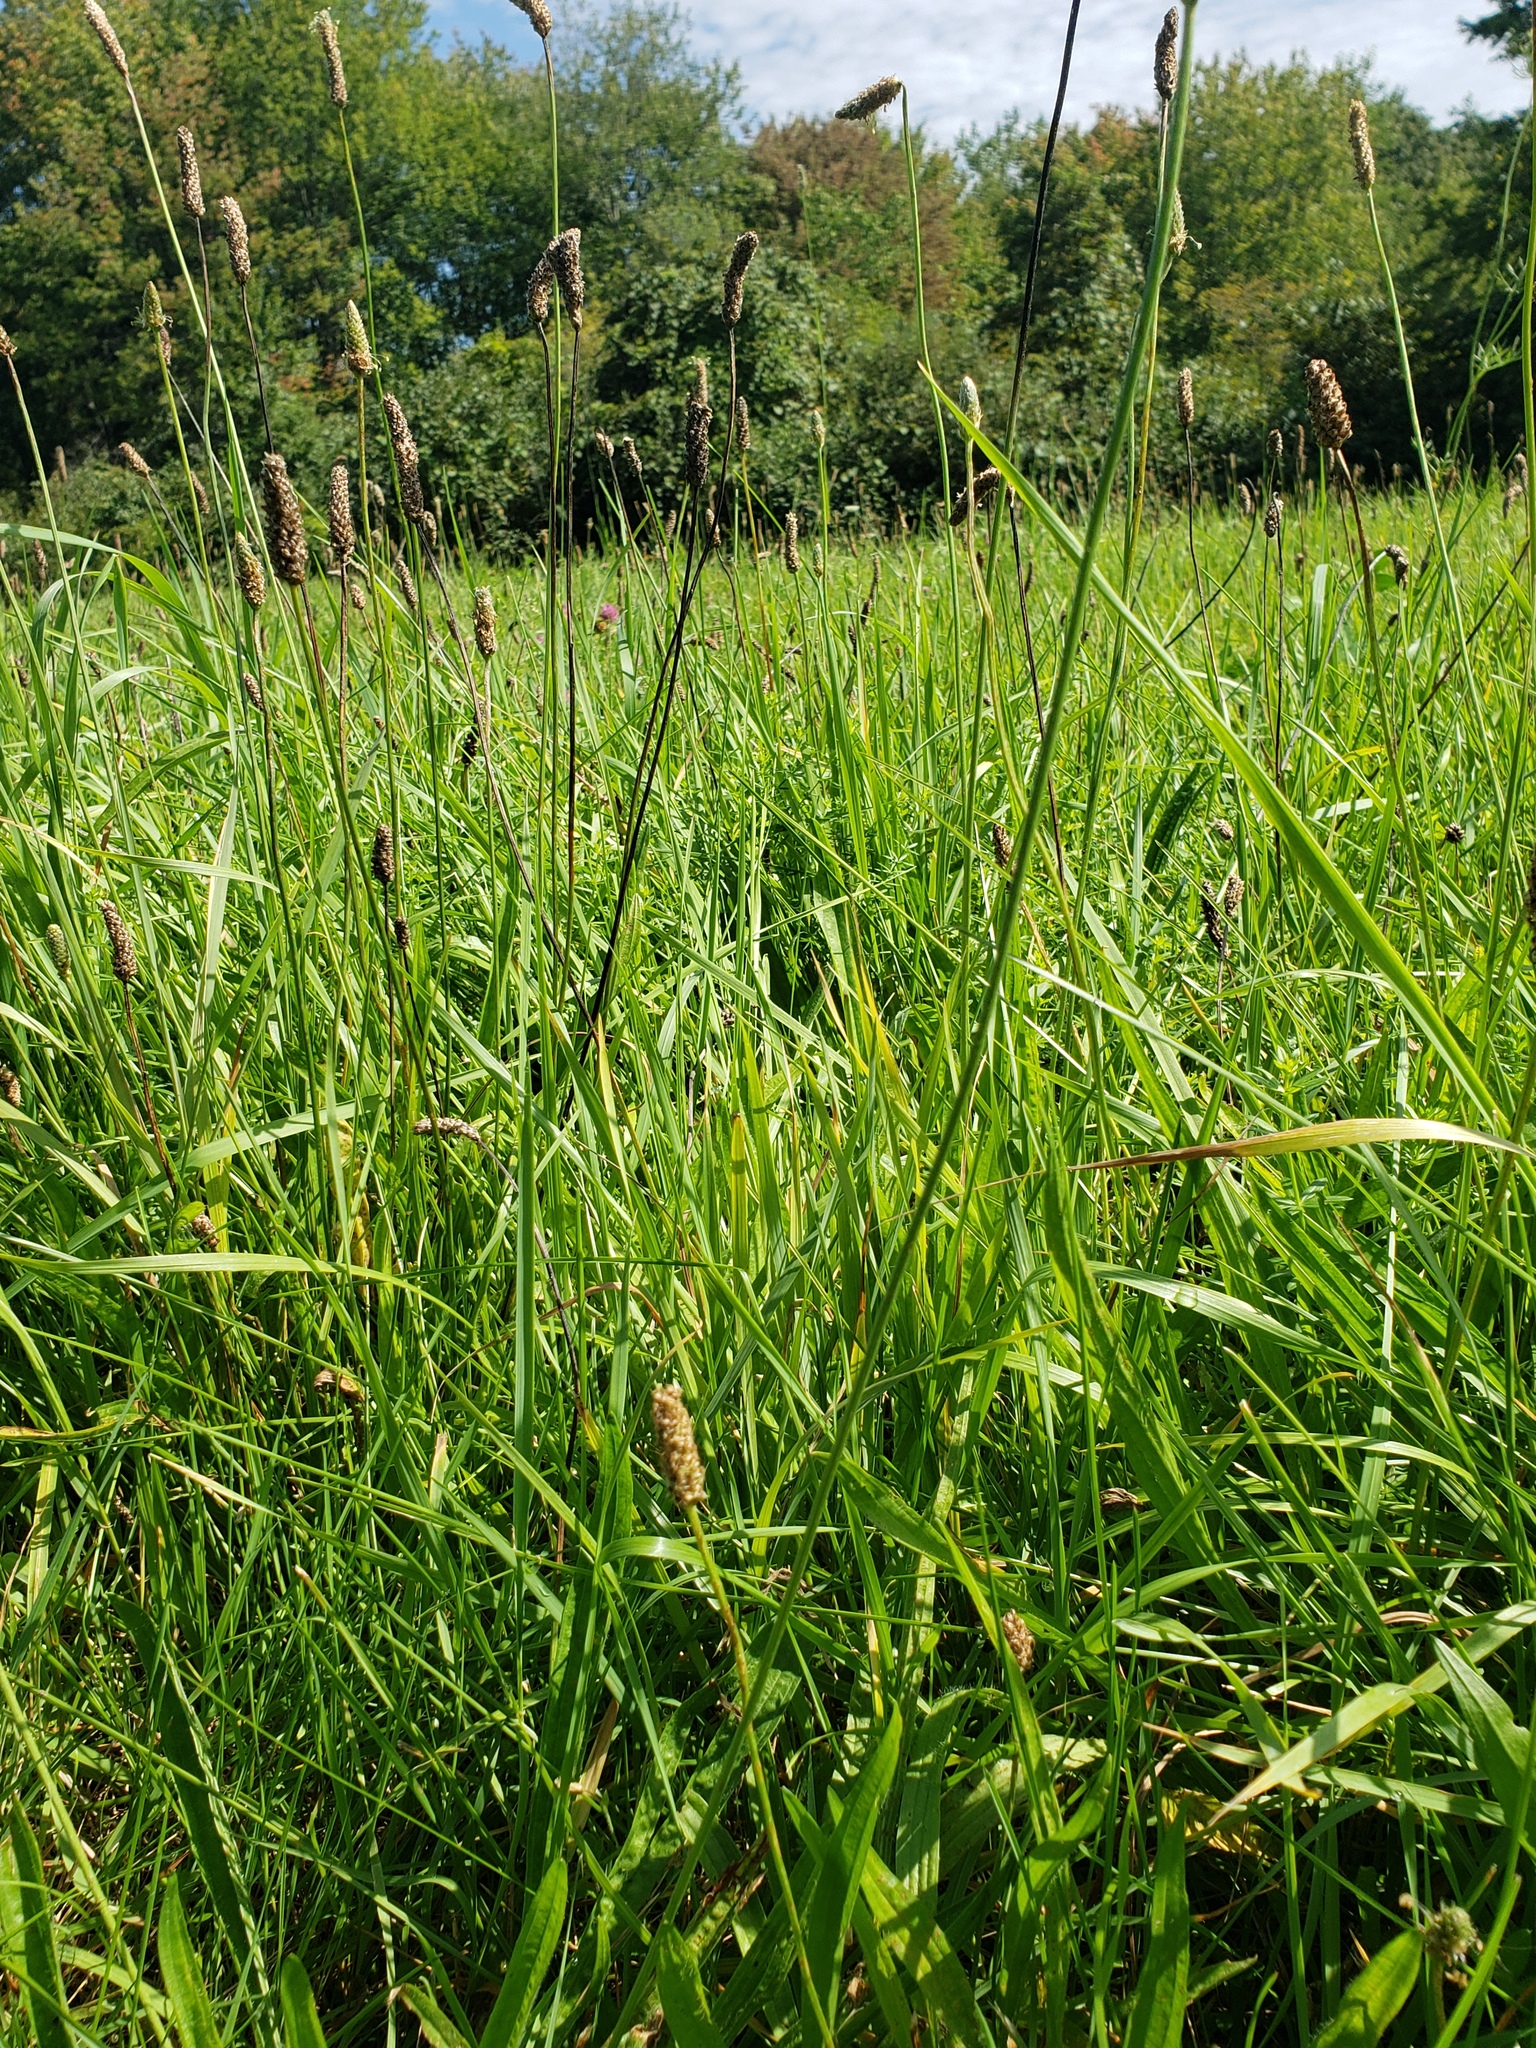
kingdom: Plantae
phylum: Tracheophyta
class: Magnoliopsida
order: Lamiales
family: Plantaginaceae
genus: Plantago
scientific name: Plantago lanceolata
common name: Ribwort plantain
